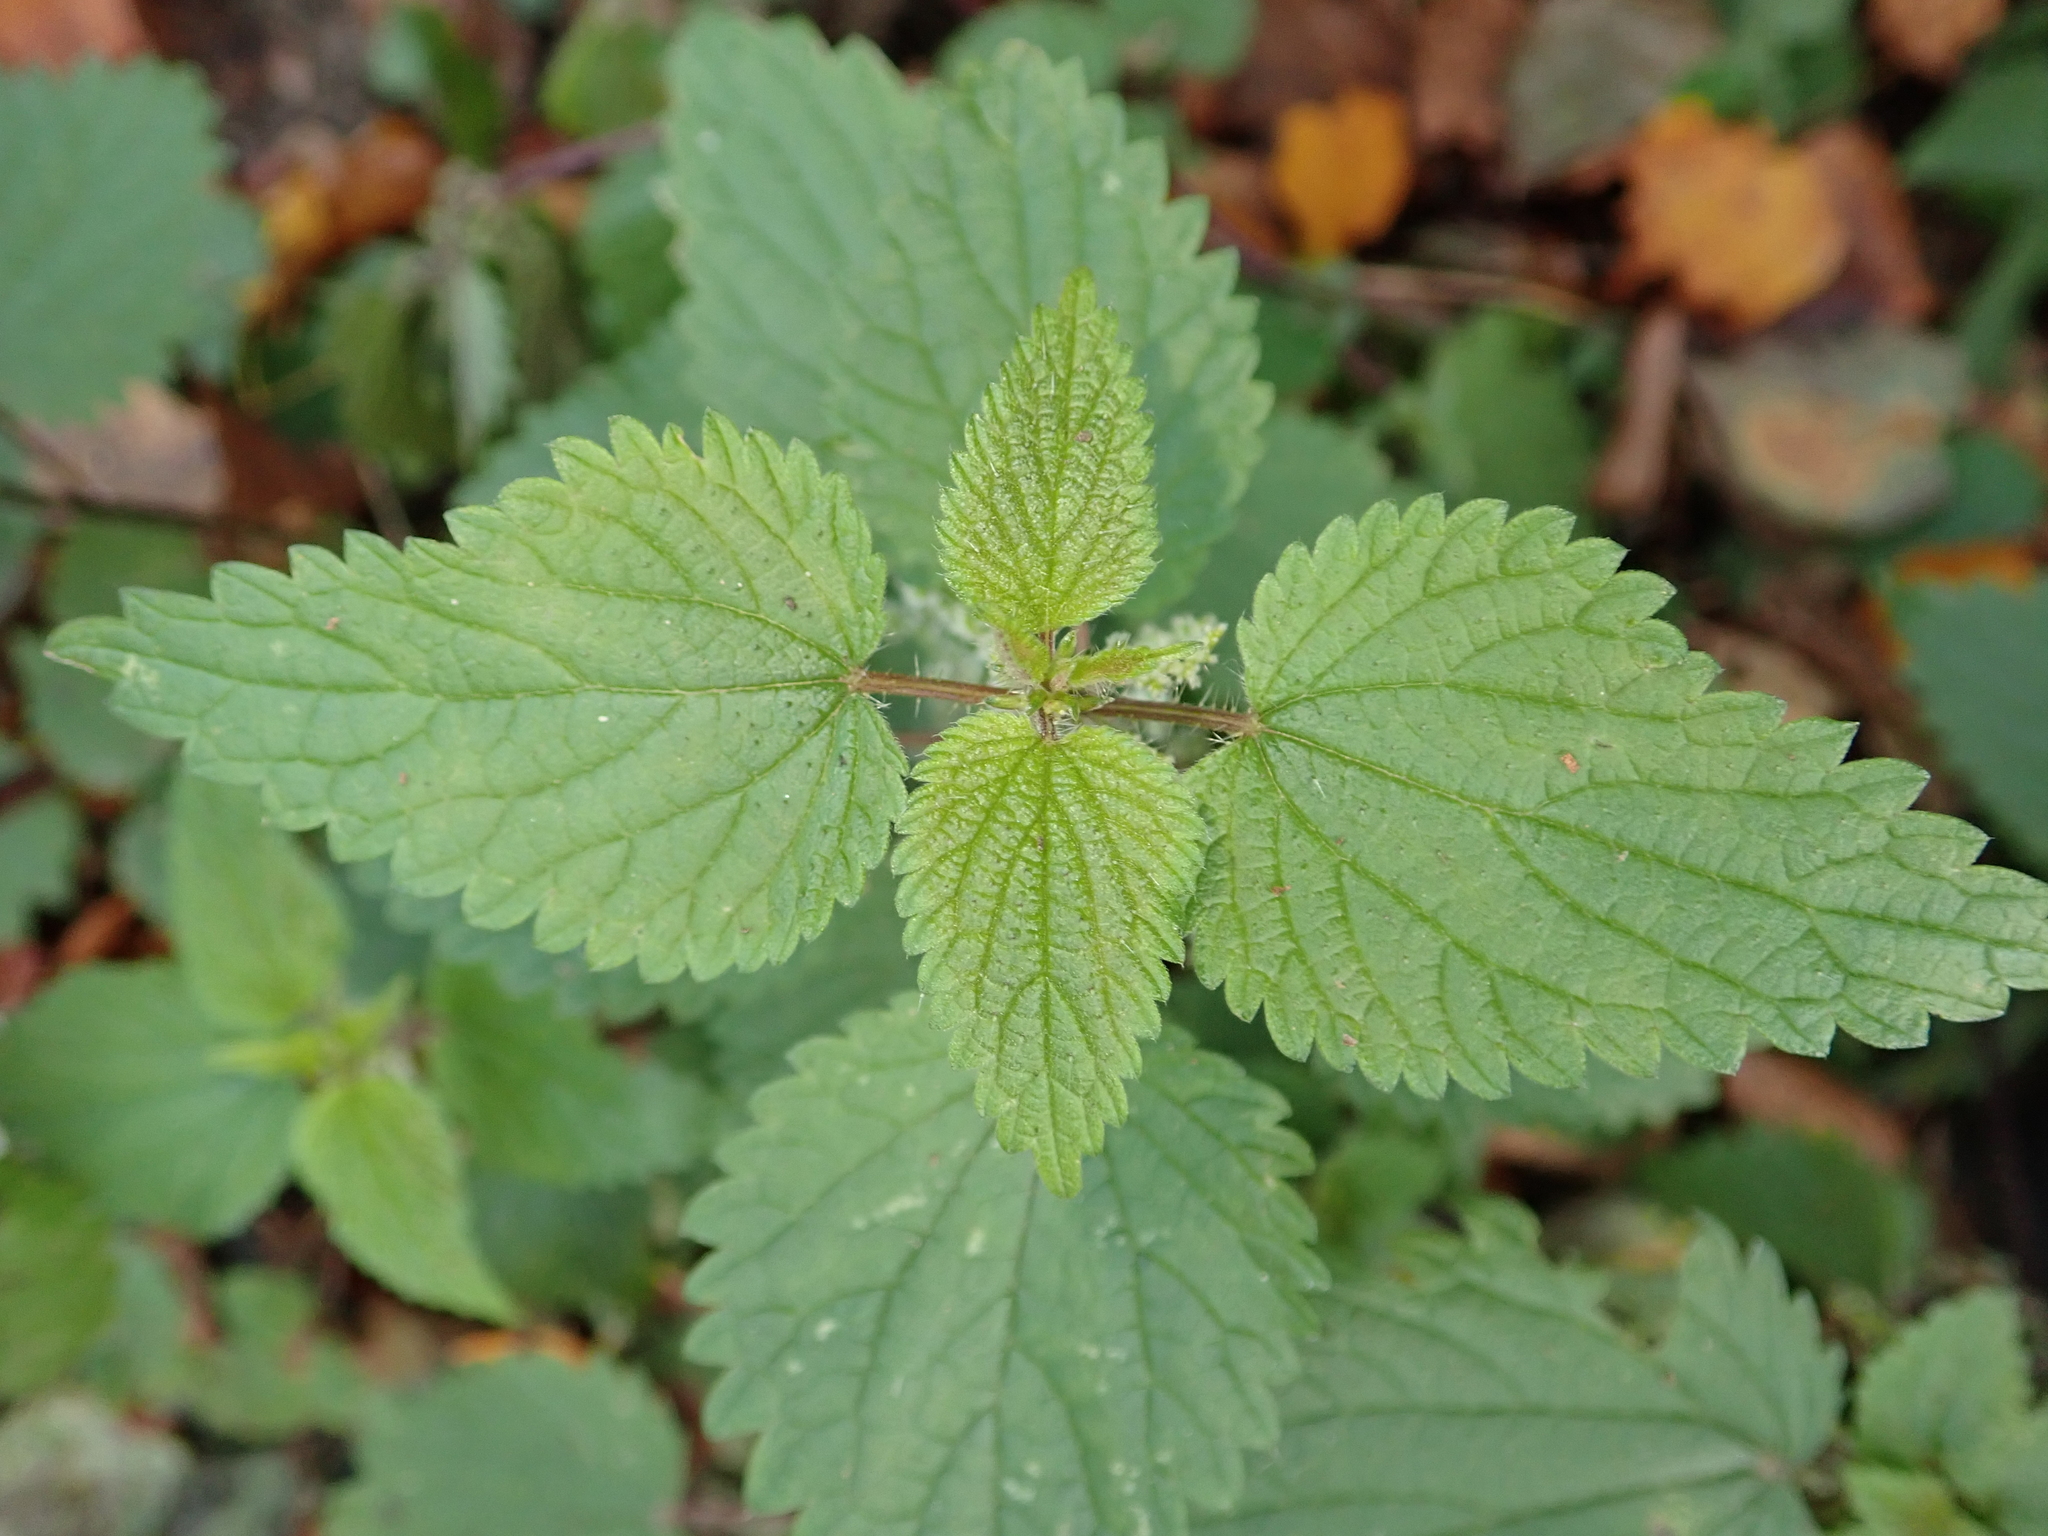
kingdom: Plantae
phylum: Tracheophyta
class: Magnoliopsida
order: Rosales
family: Urticaceae
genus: Urtica
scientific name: Urtica dioica
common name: Common nettle
